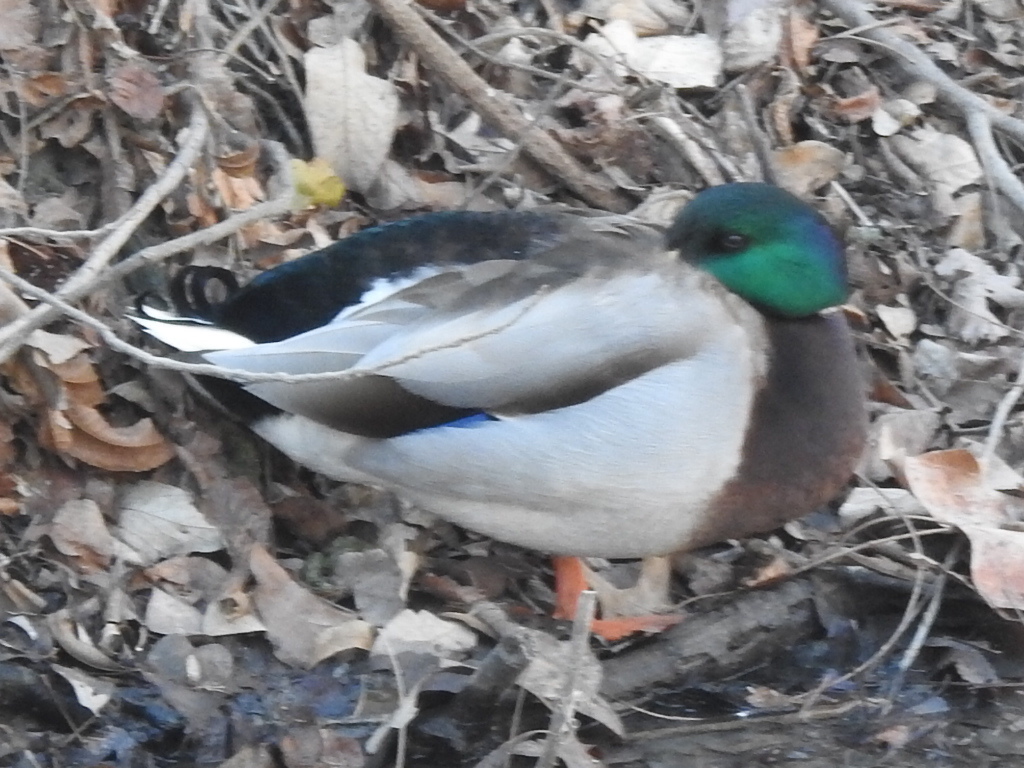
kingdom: Animalia
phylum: Chordata
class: Aves
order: Anseriformes
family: Anatidae
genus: Anas
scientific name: Anas platyrhynchos
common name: Mallard
